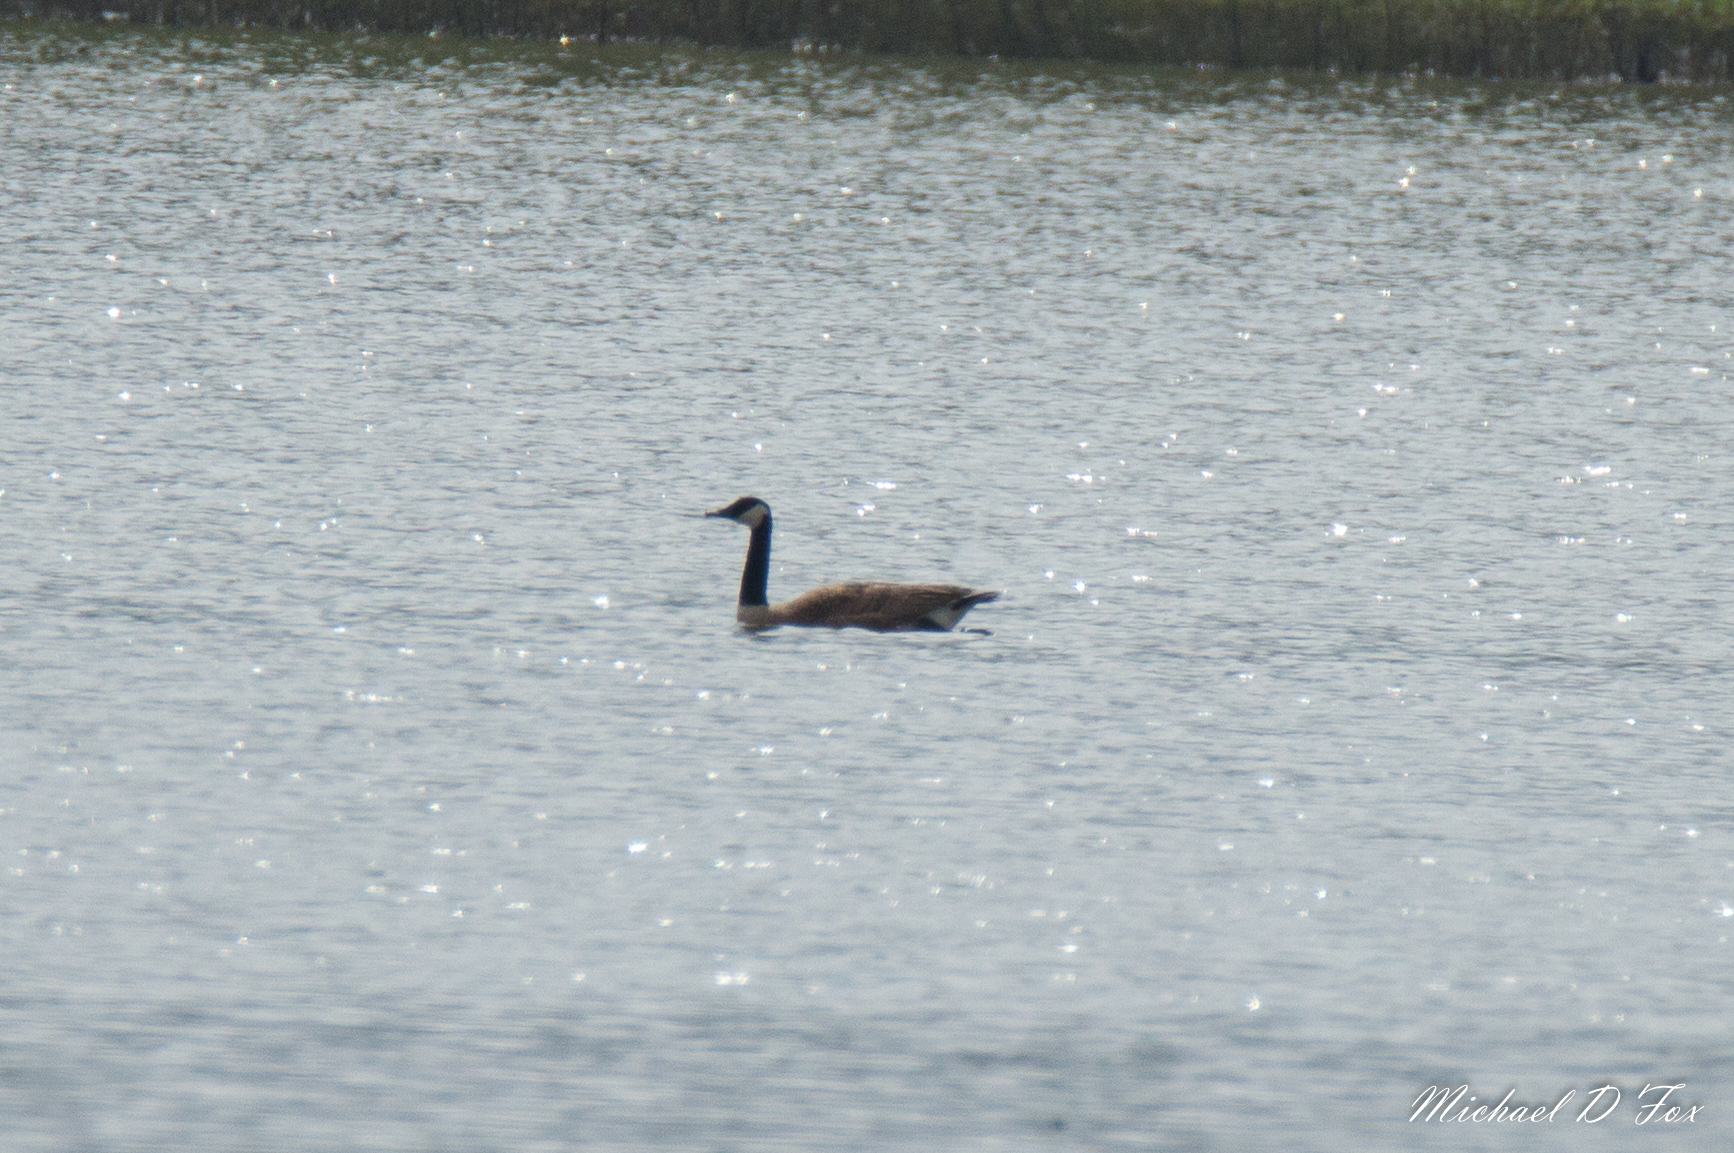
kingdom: Animalia
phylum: Chordata
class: Aves
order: Anseriformes
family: Anatidae
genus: Branta
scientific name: Branta canadensis
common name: Canada goose
